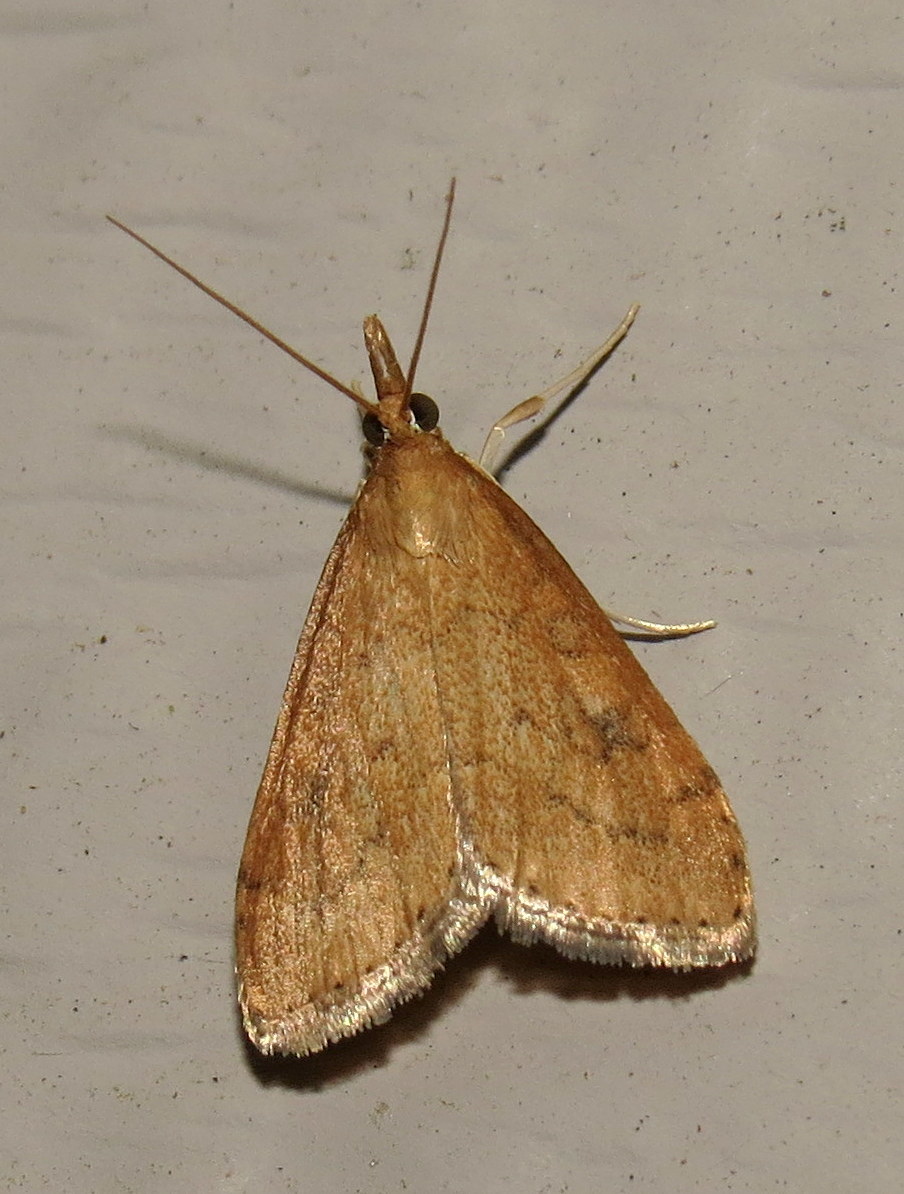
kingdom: Animalia
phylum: Arthropoda
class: Insecta
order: Lepidoptera
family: Crambidae
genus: Udea
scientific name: Udea rubigalis
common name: Celery leaftier moth
